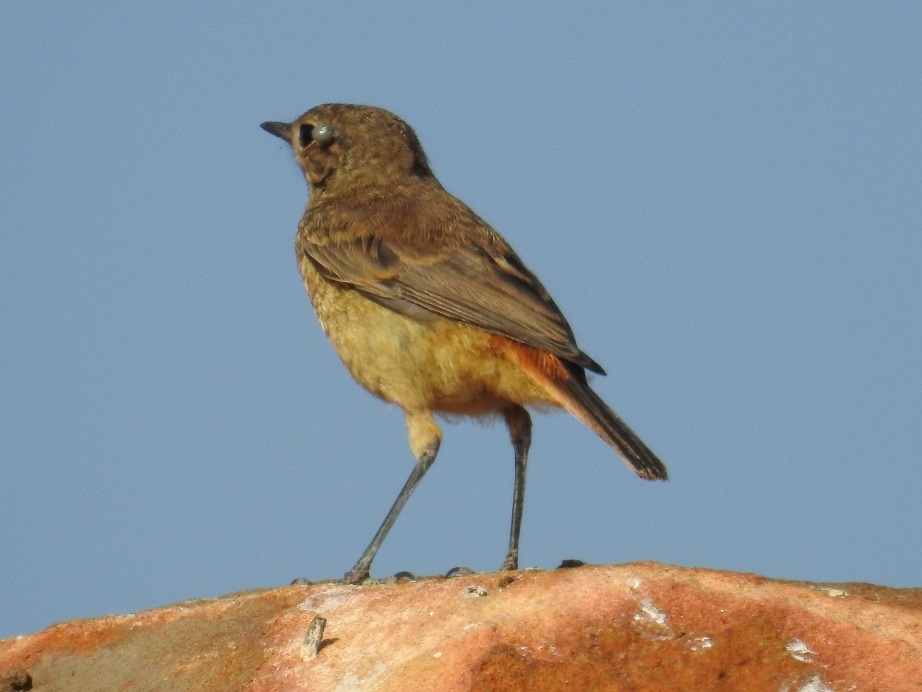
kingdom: Animalia
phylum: Chordata
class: Aves
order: Passeriformes
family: Muscicapidae
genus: Phoenicurus
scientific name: Phoenicurus moussieri
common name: Moussier's redstart
